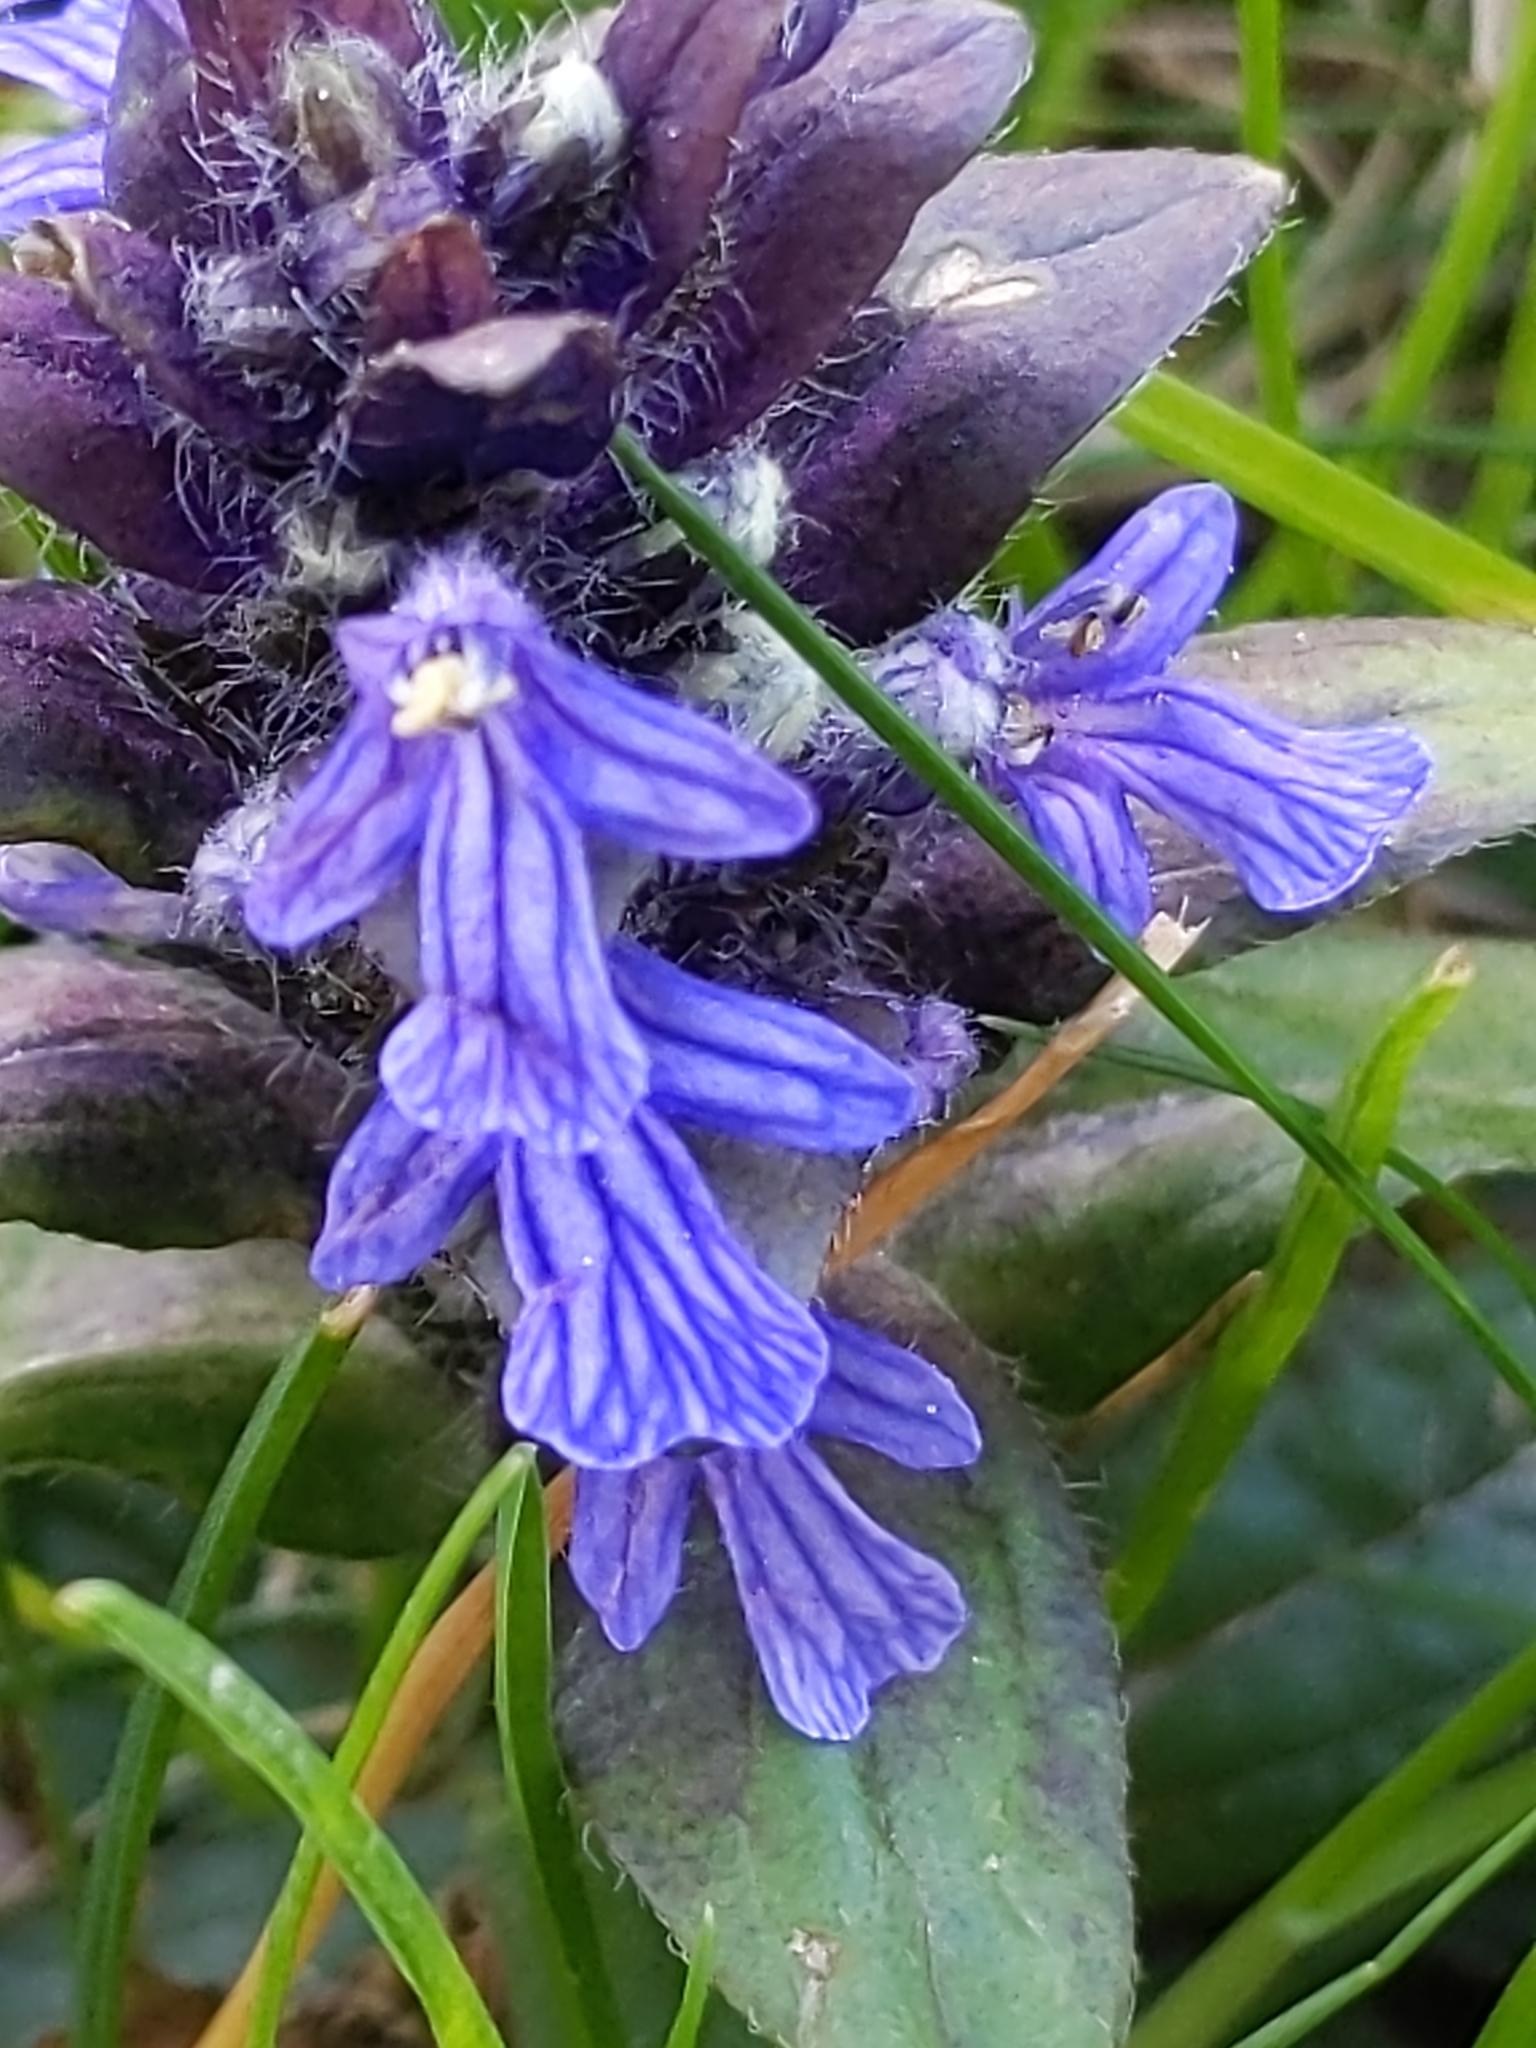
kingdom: Plantae
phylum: Tracheophyta
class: Magnoliopsida
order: Lamiales
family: Lamiaceae
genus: Ajuga
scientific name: Ajuga reptans
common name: Bugle
